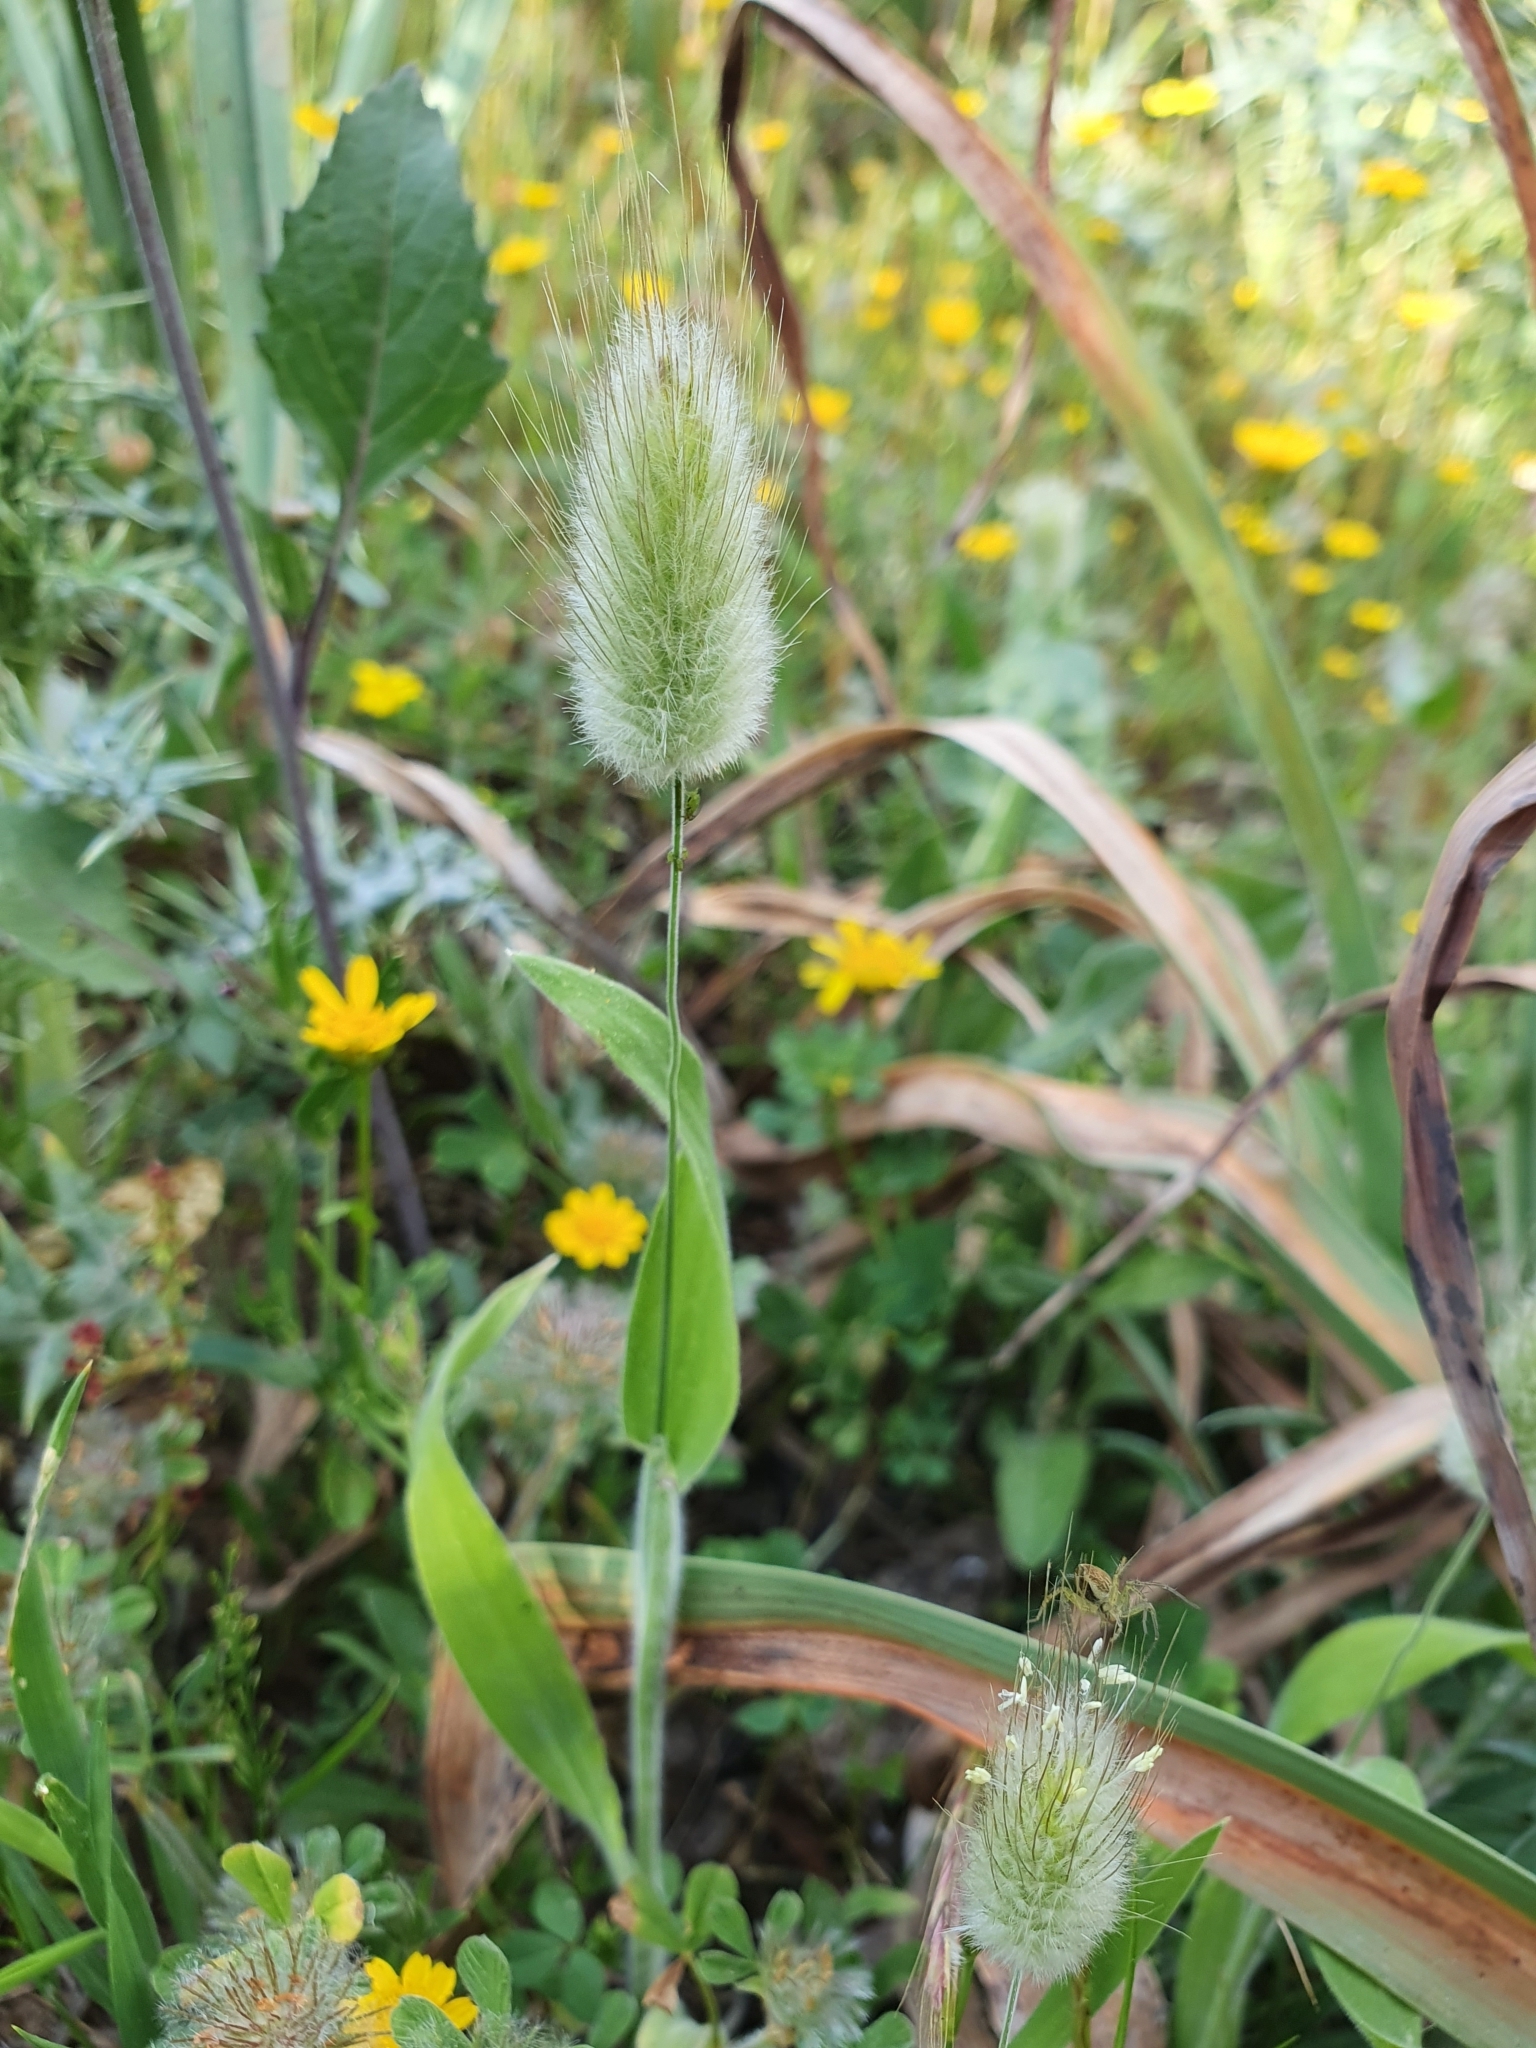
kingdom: Plantae
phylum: Tracheophyta
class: Liliopsida
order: Poales
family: Poaceae
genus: Lagurus
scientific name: Lagurus ovatus
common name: Hare's-tail
